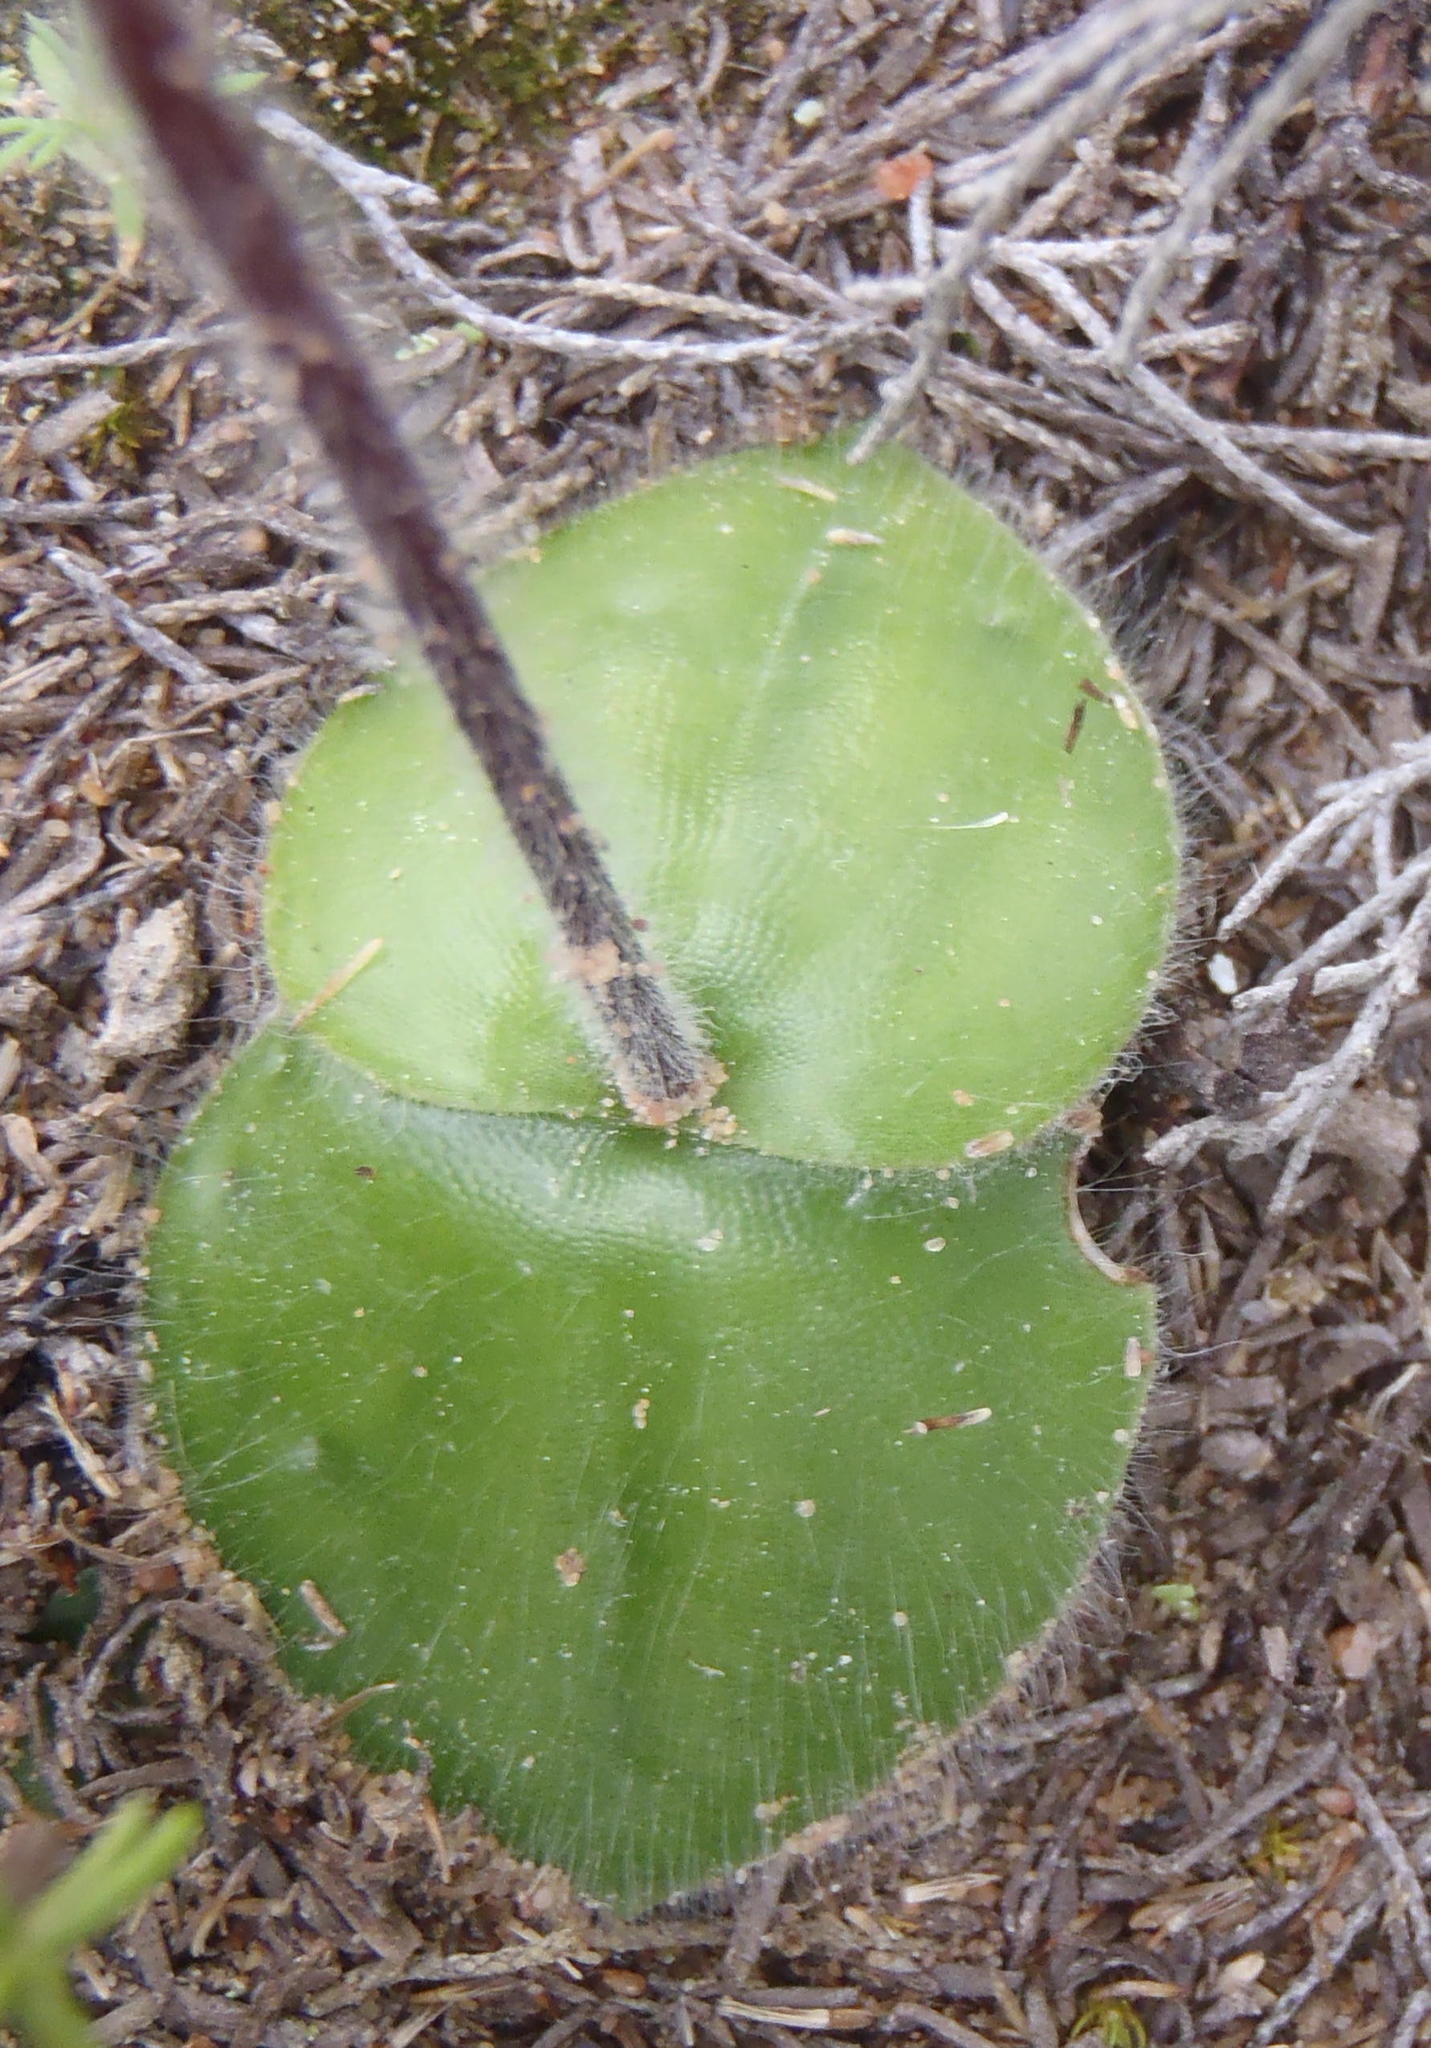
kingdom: Plantae
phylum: Tracheophyta
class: Liliopsida
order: Asparagales
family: Orchidaceae
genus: Holothrix
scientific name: Holothrix villosa
